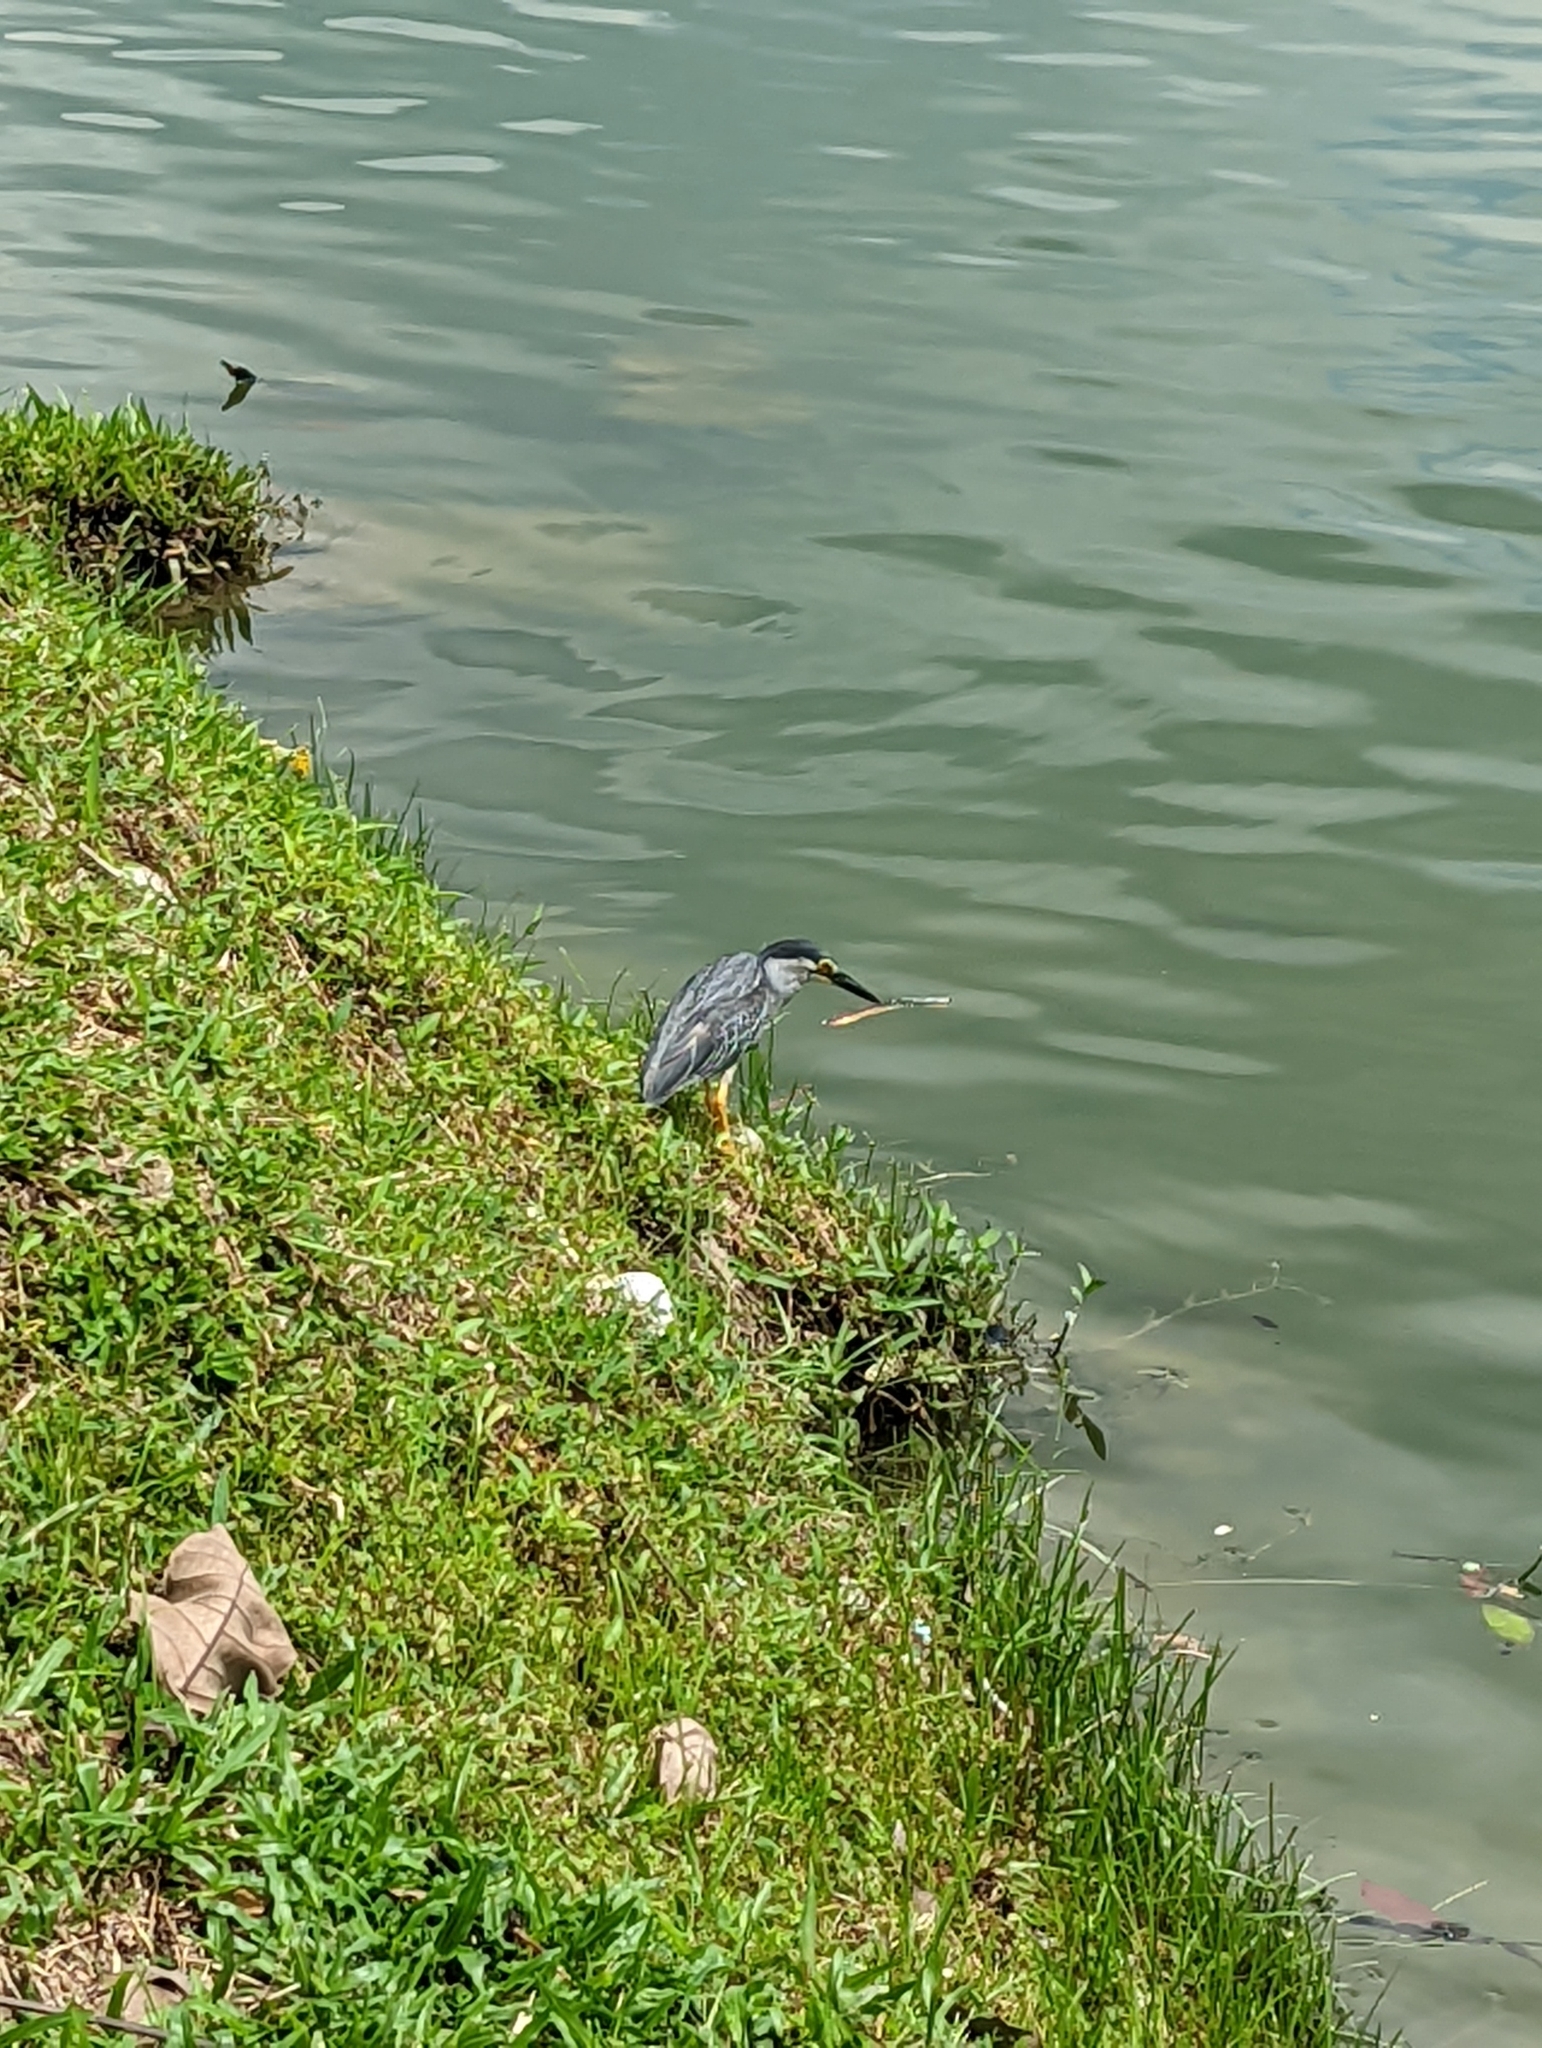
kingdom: Animalia
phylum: Chordata
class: Aves
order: Pelecaniformes
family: Ardeidae
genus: Butorides
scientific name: Butorides striata
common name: Striated heron
